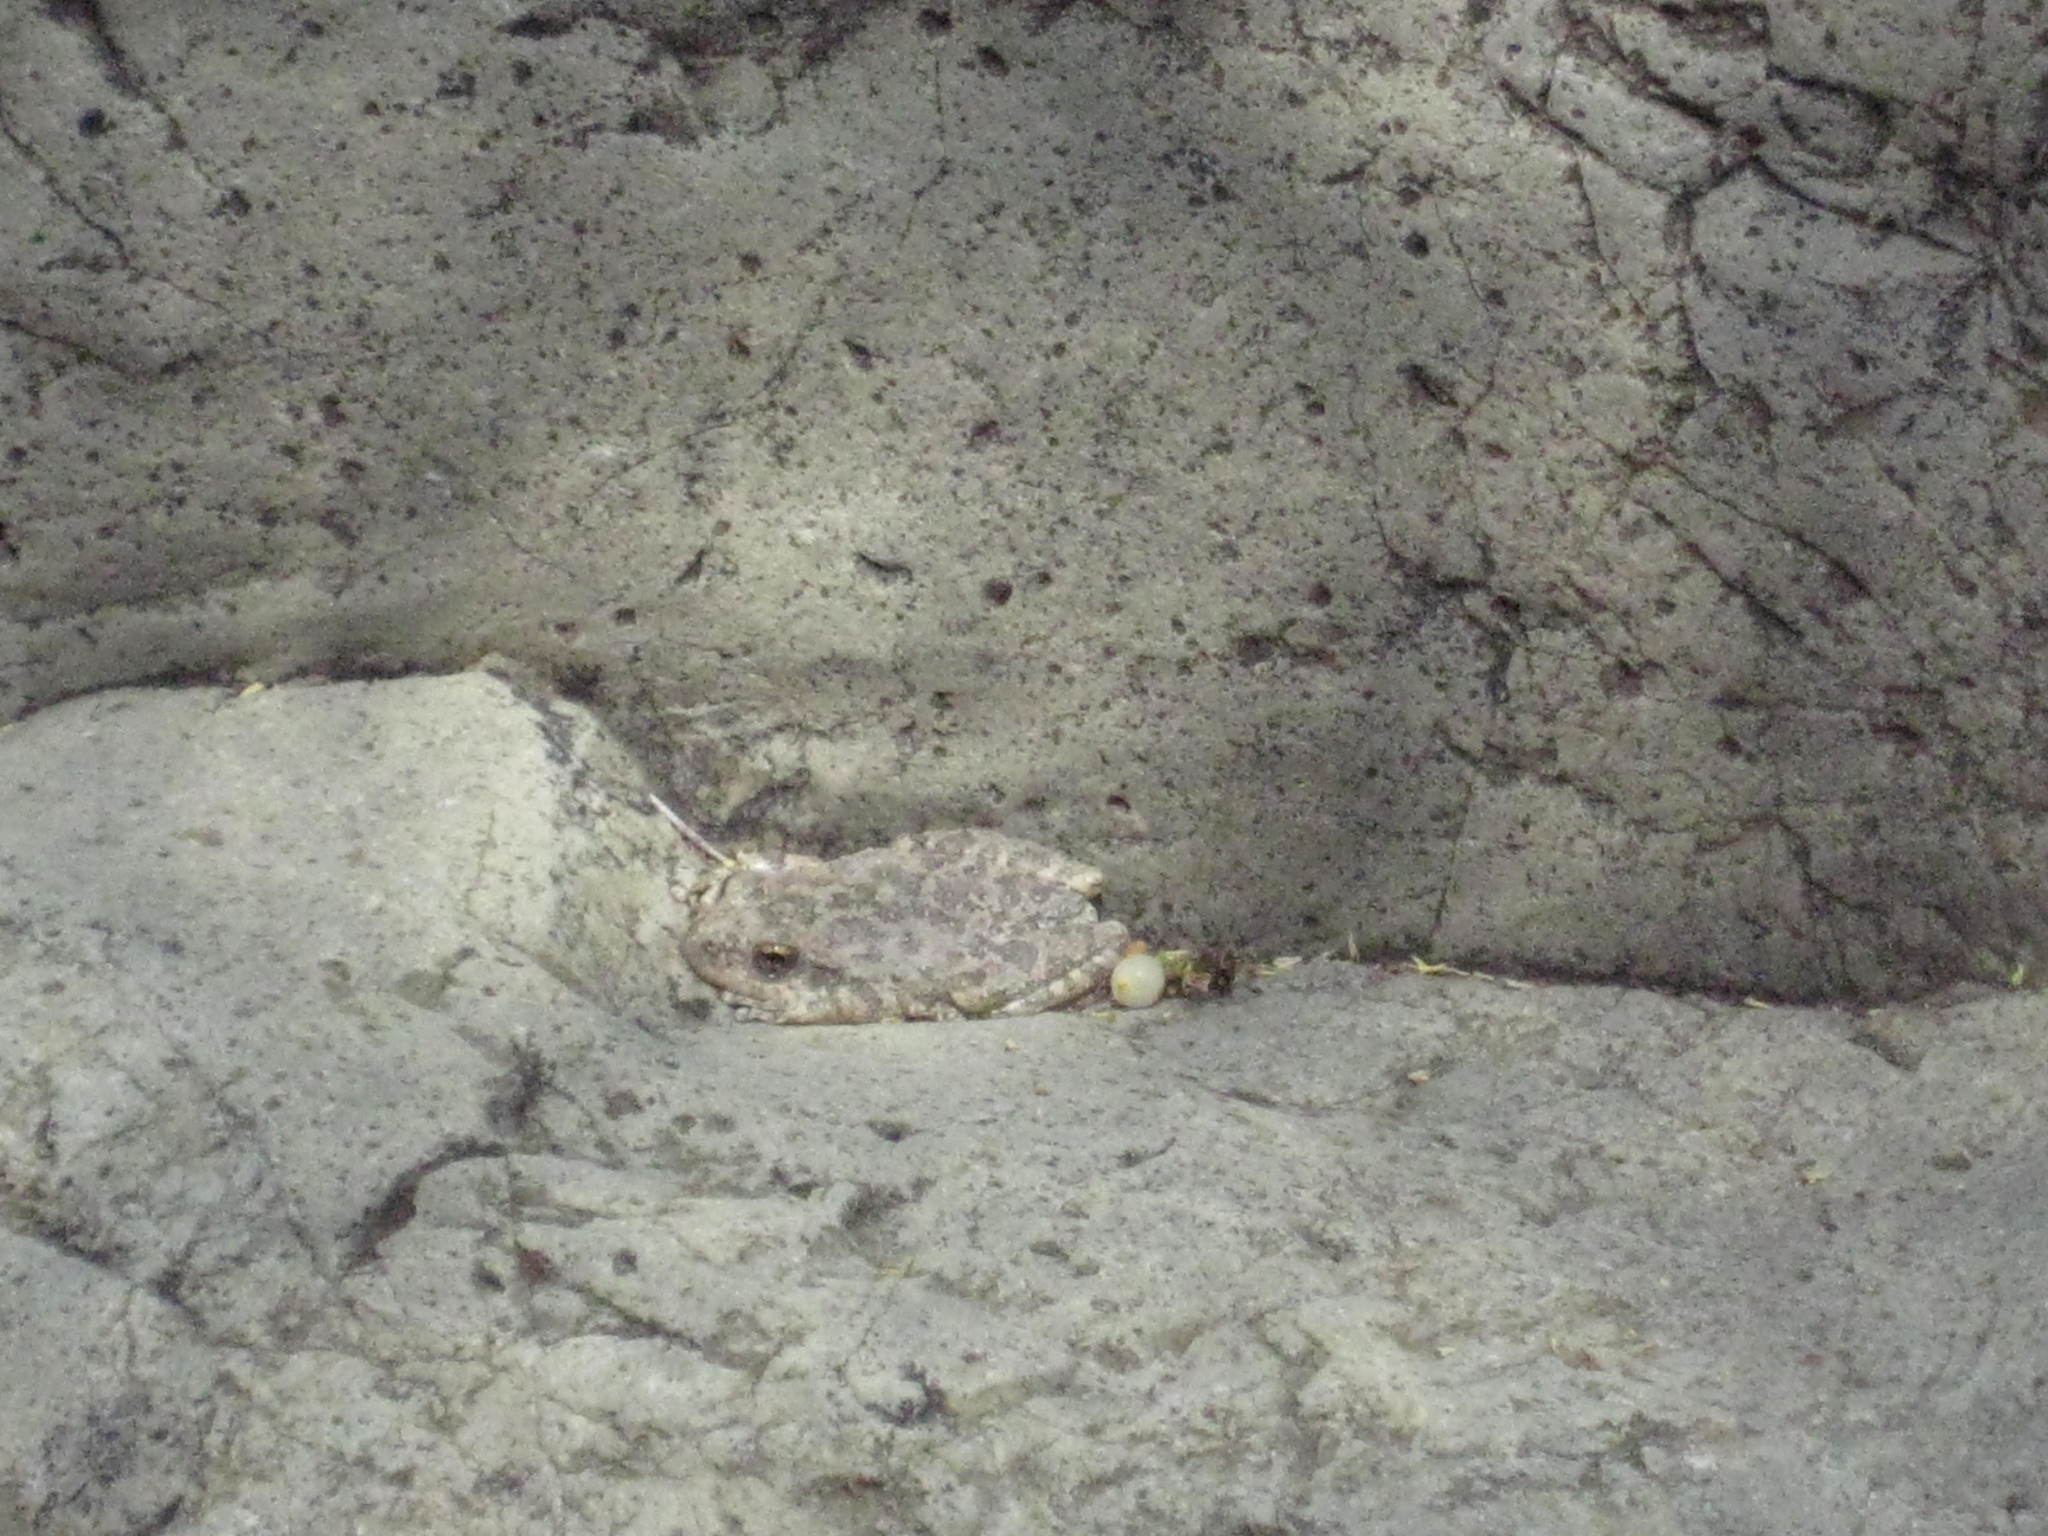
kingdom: Animalia
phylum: Chordata
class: Amphibia
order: Anura
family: Hylidae
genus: Pseudacris
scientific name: Pseudacris cadaverina
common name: California chorus frog
